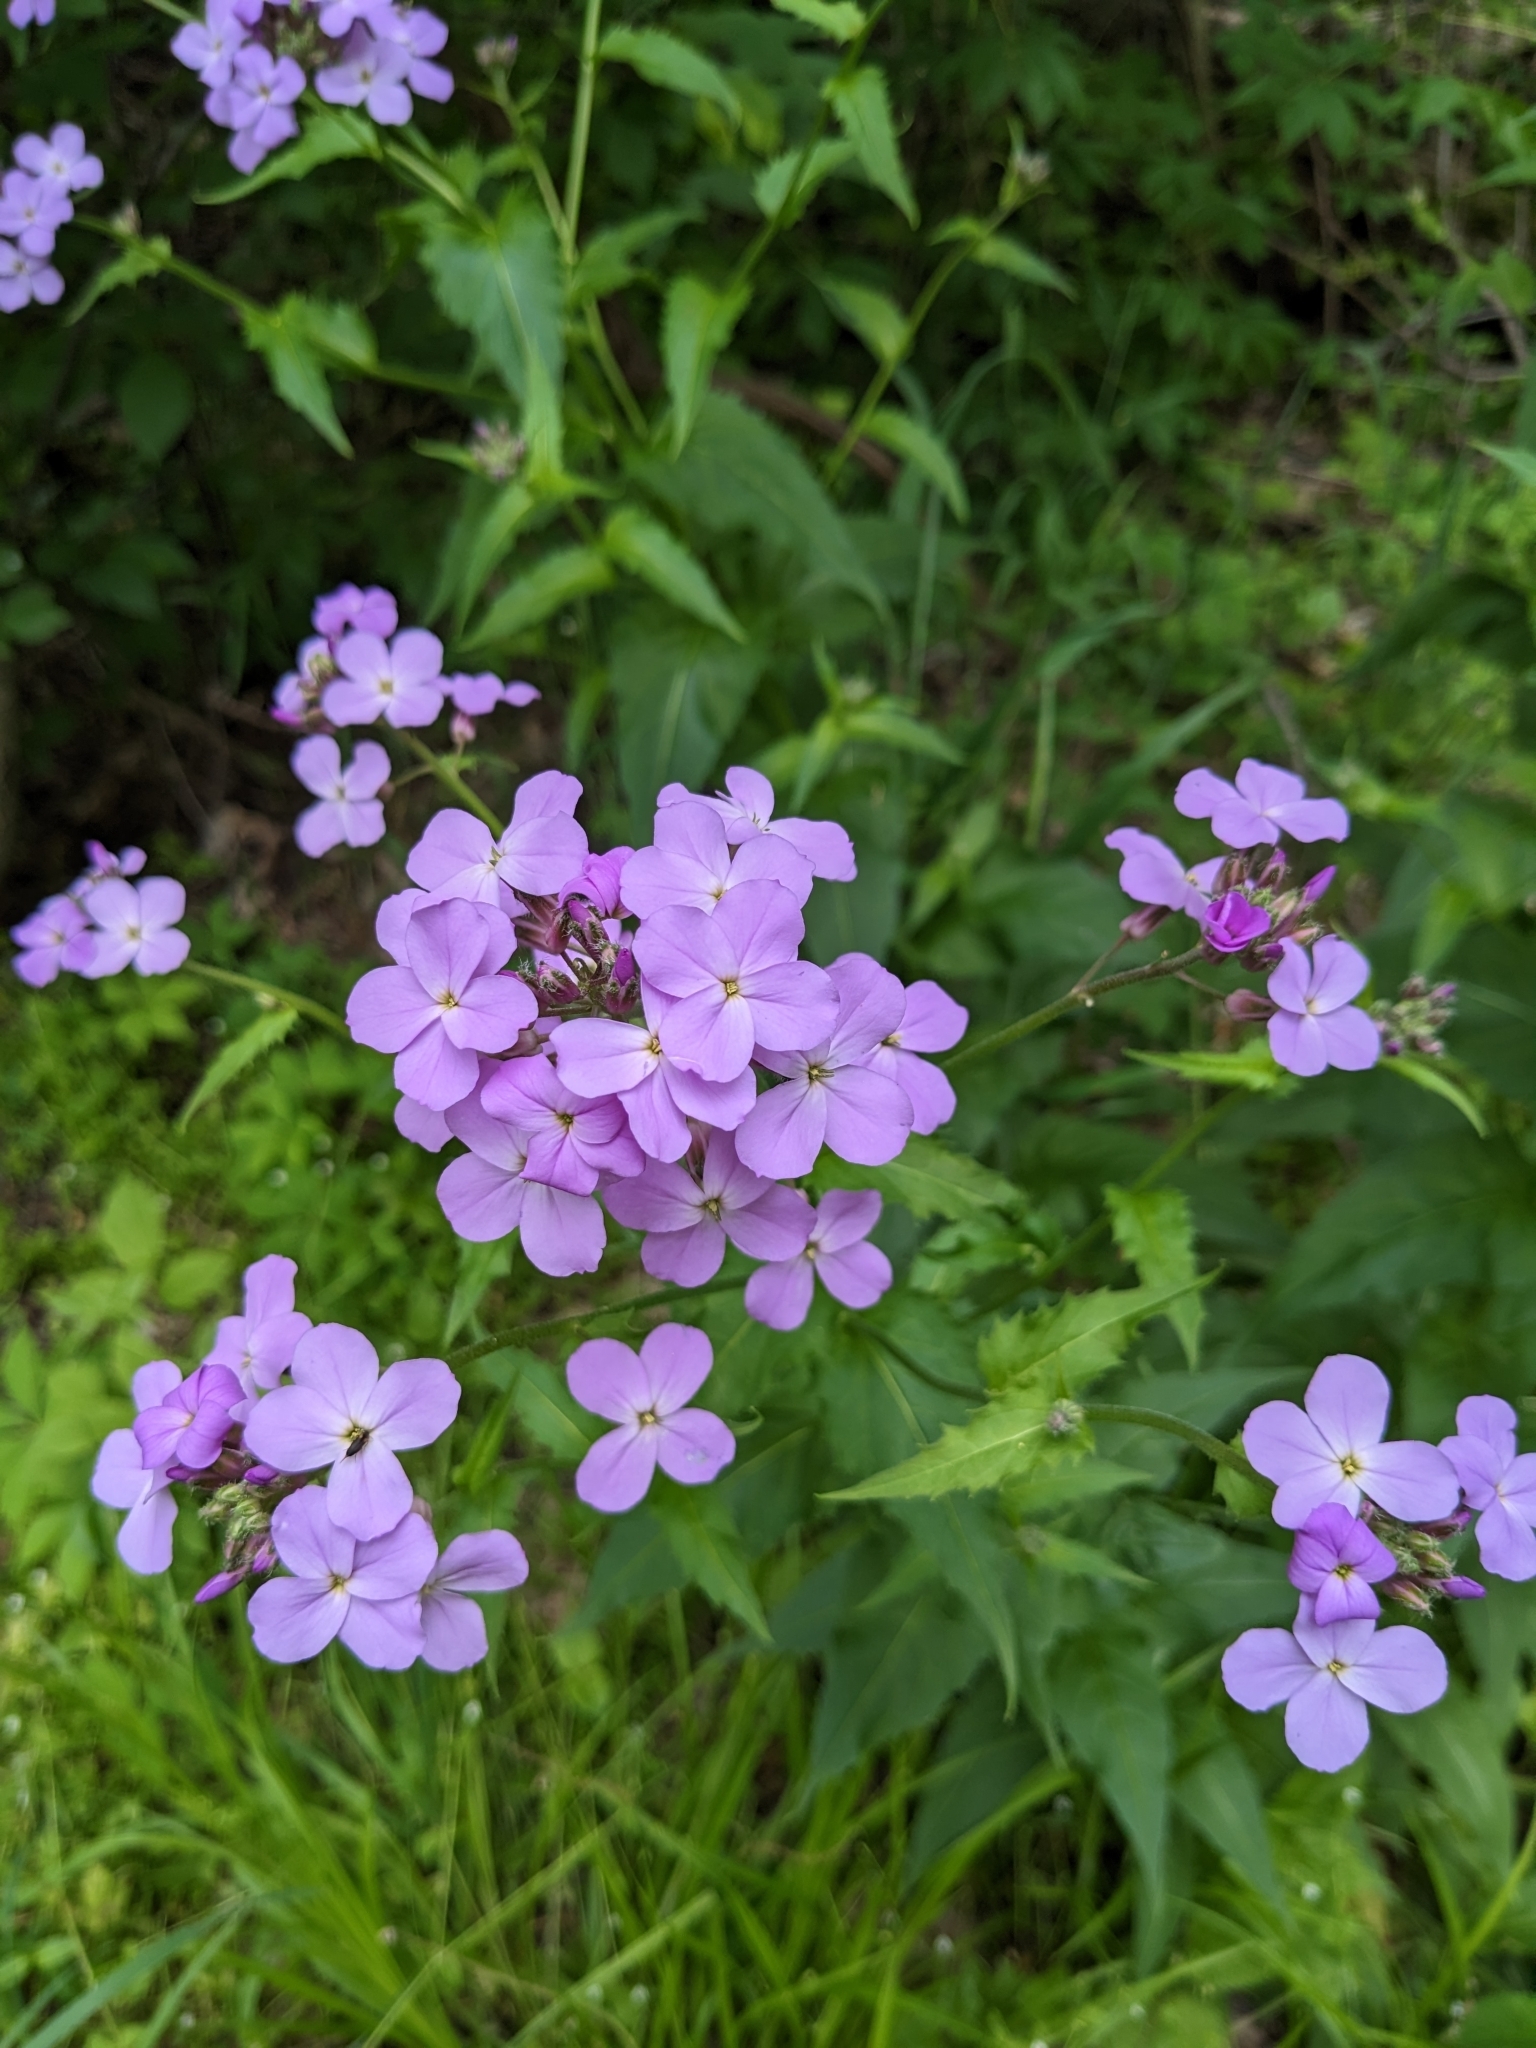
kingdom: Plantae
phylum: Tracheophyta
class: Magnoliopsida
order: Brassicales
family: Brassicaceae
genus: Hesperis
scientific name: Hesperis matronalis
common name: Dame's-violet
